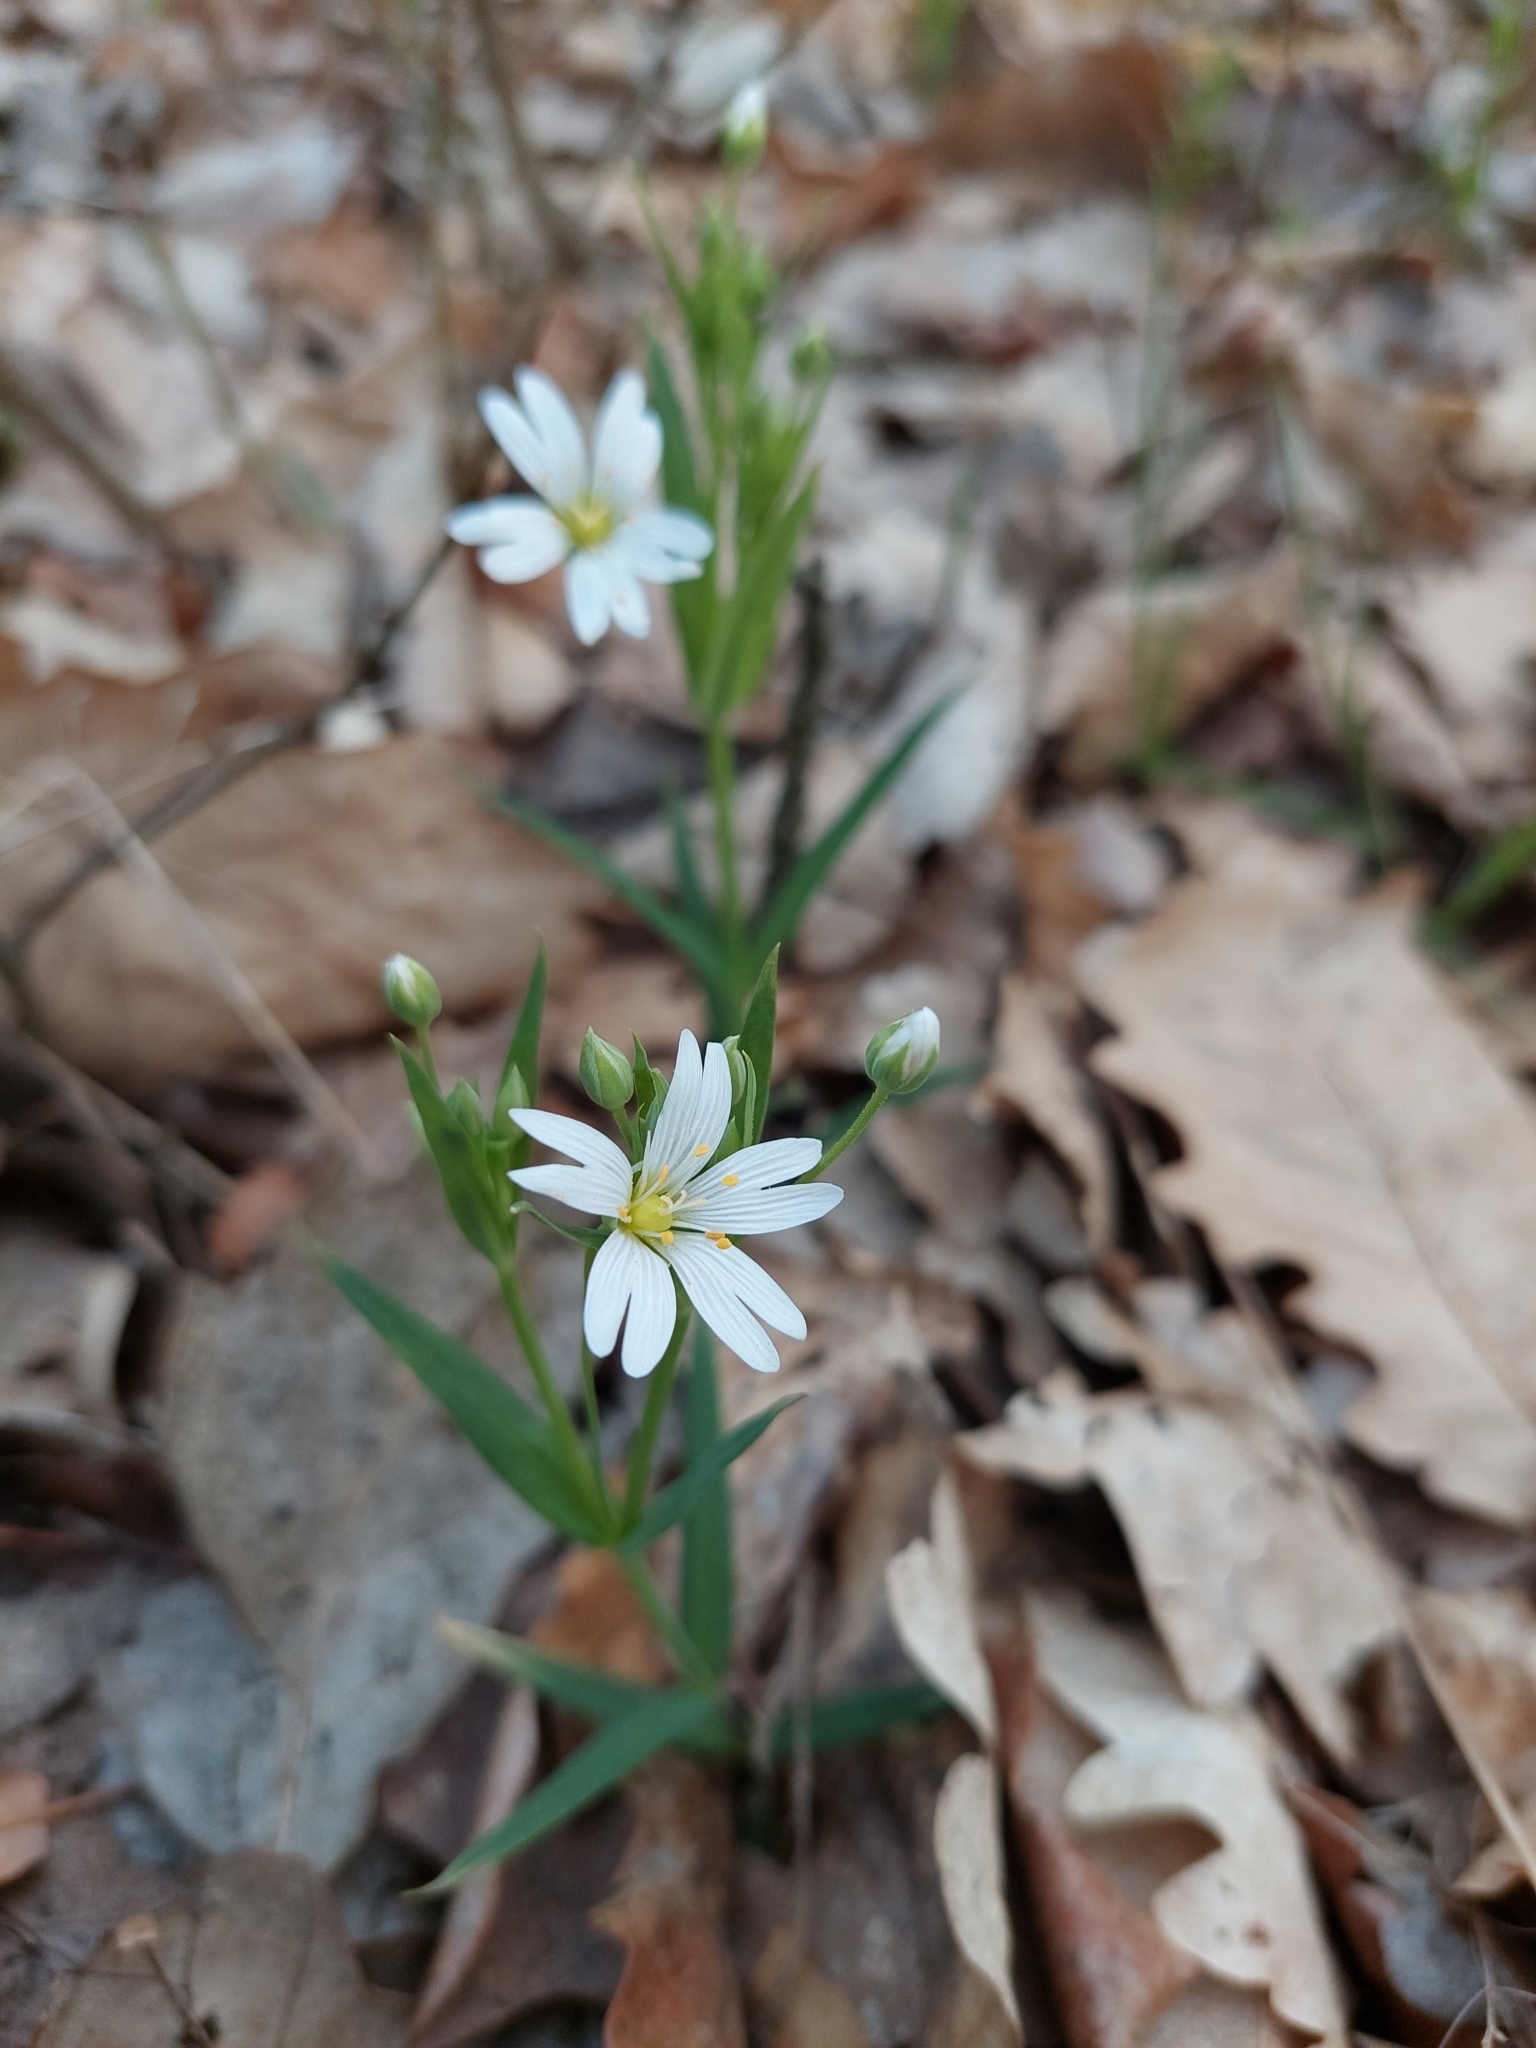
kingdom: Plantae
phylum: Tracheophyta
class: Magnoliopsida
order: Caryophyllales
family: Caryophyllaceae
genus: Rabelera
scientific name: Rabelera holostea
